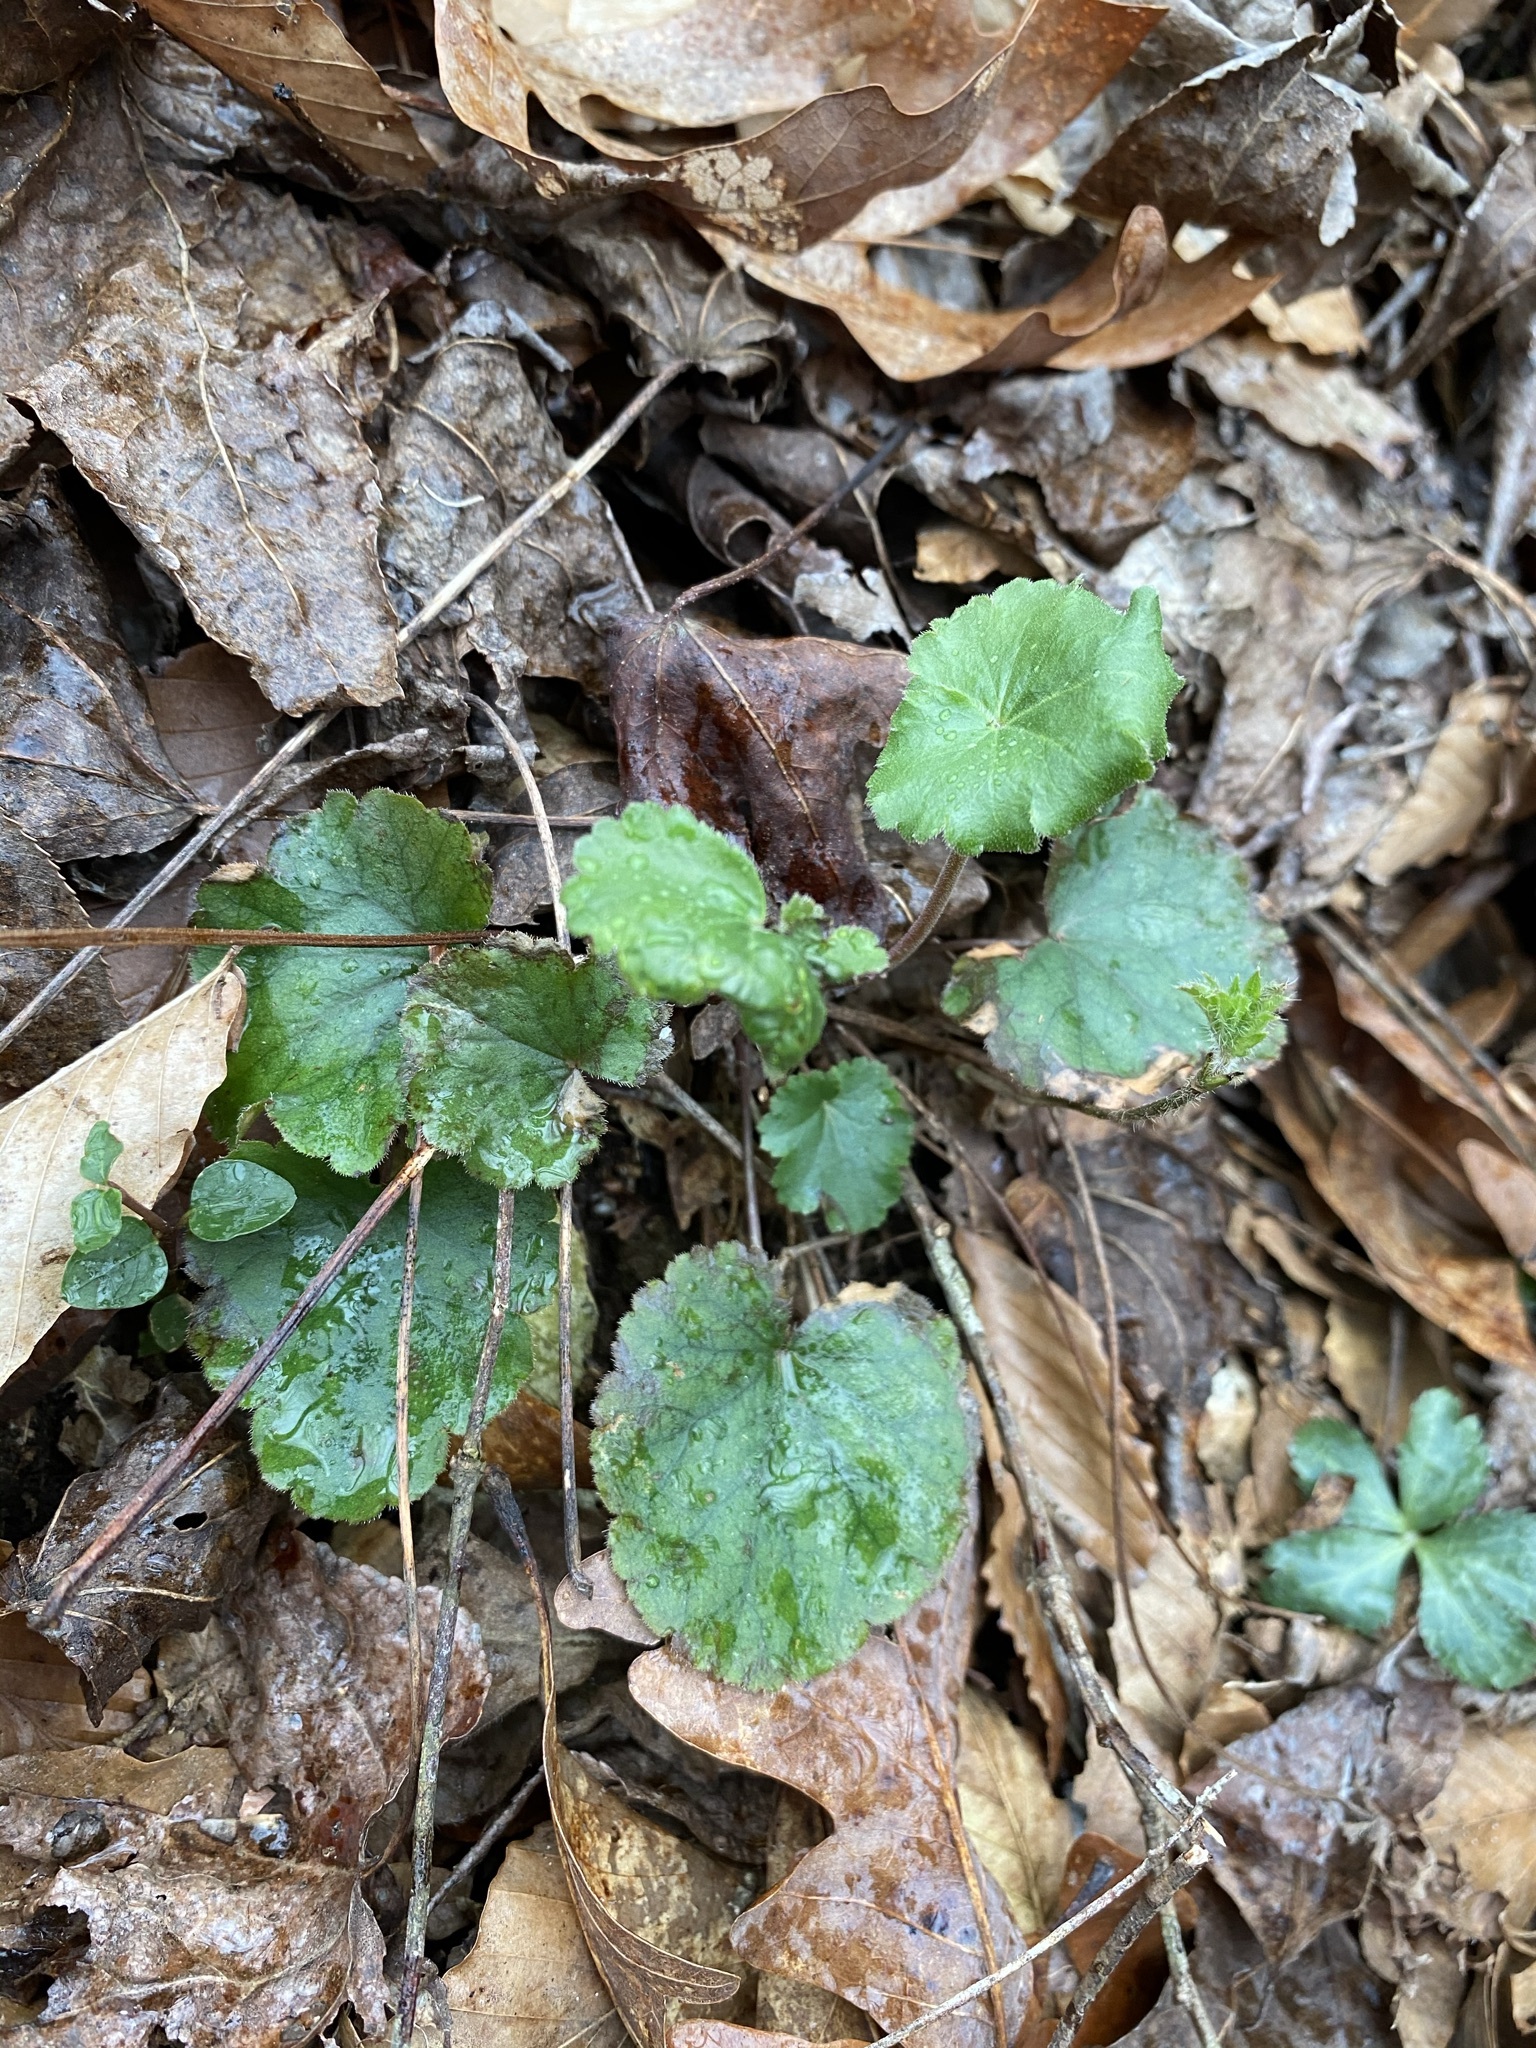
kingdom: Plantae
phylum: Tracheophyta
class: Magnoliopsida
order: Saxifragales
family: Saxifragaceae
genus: Heuchera
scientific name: Heuchera americana
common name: Alumroot
